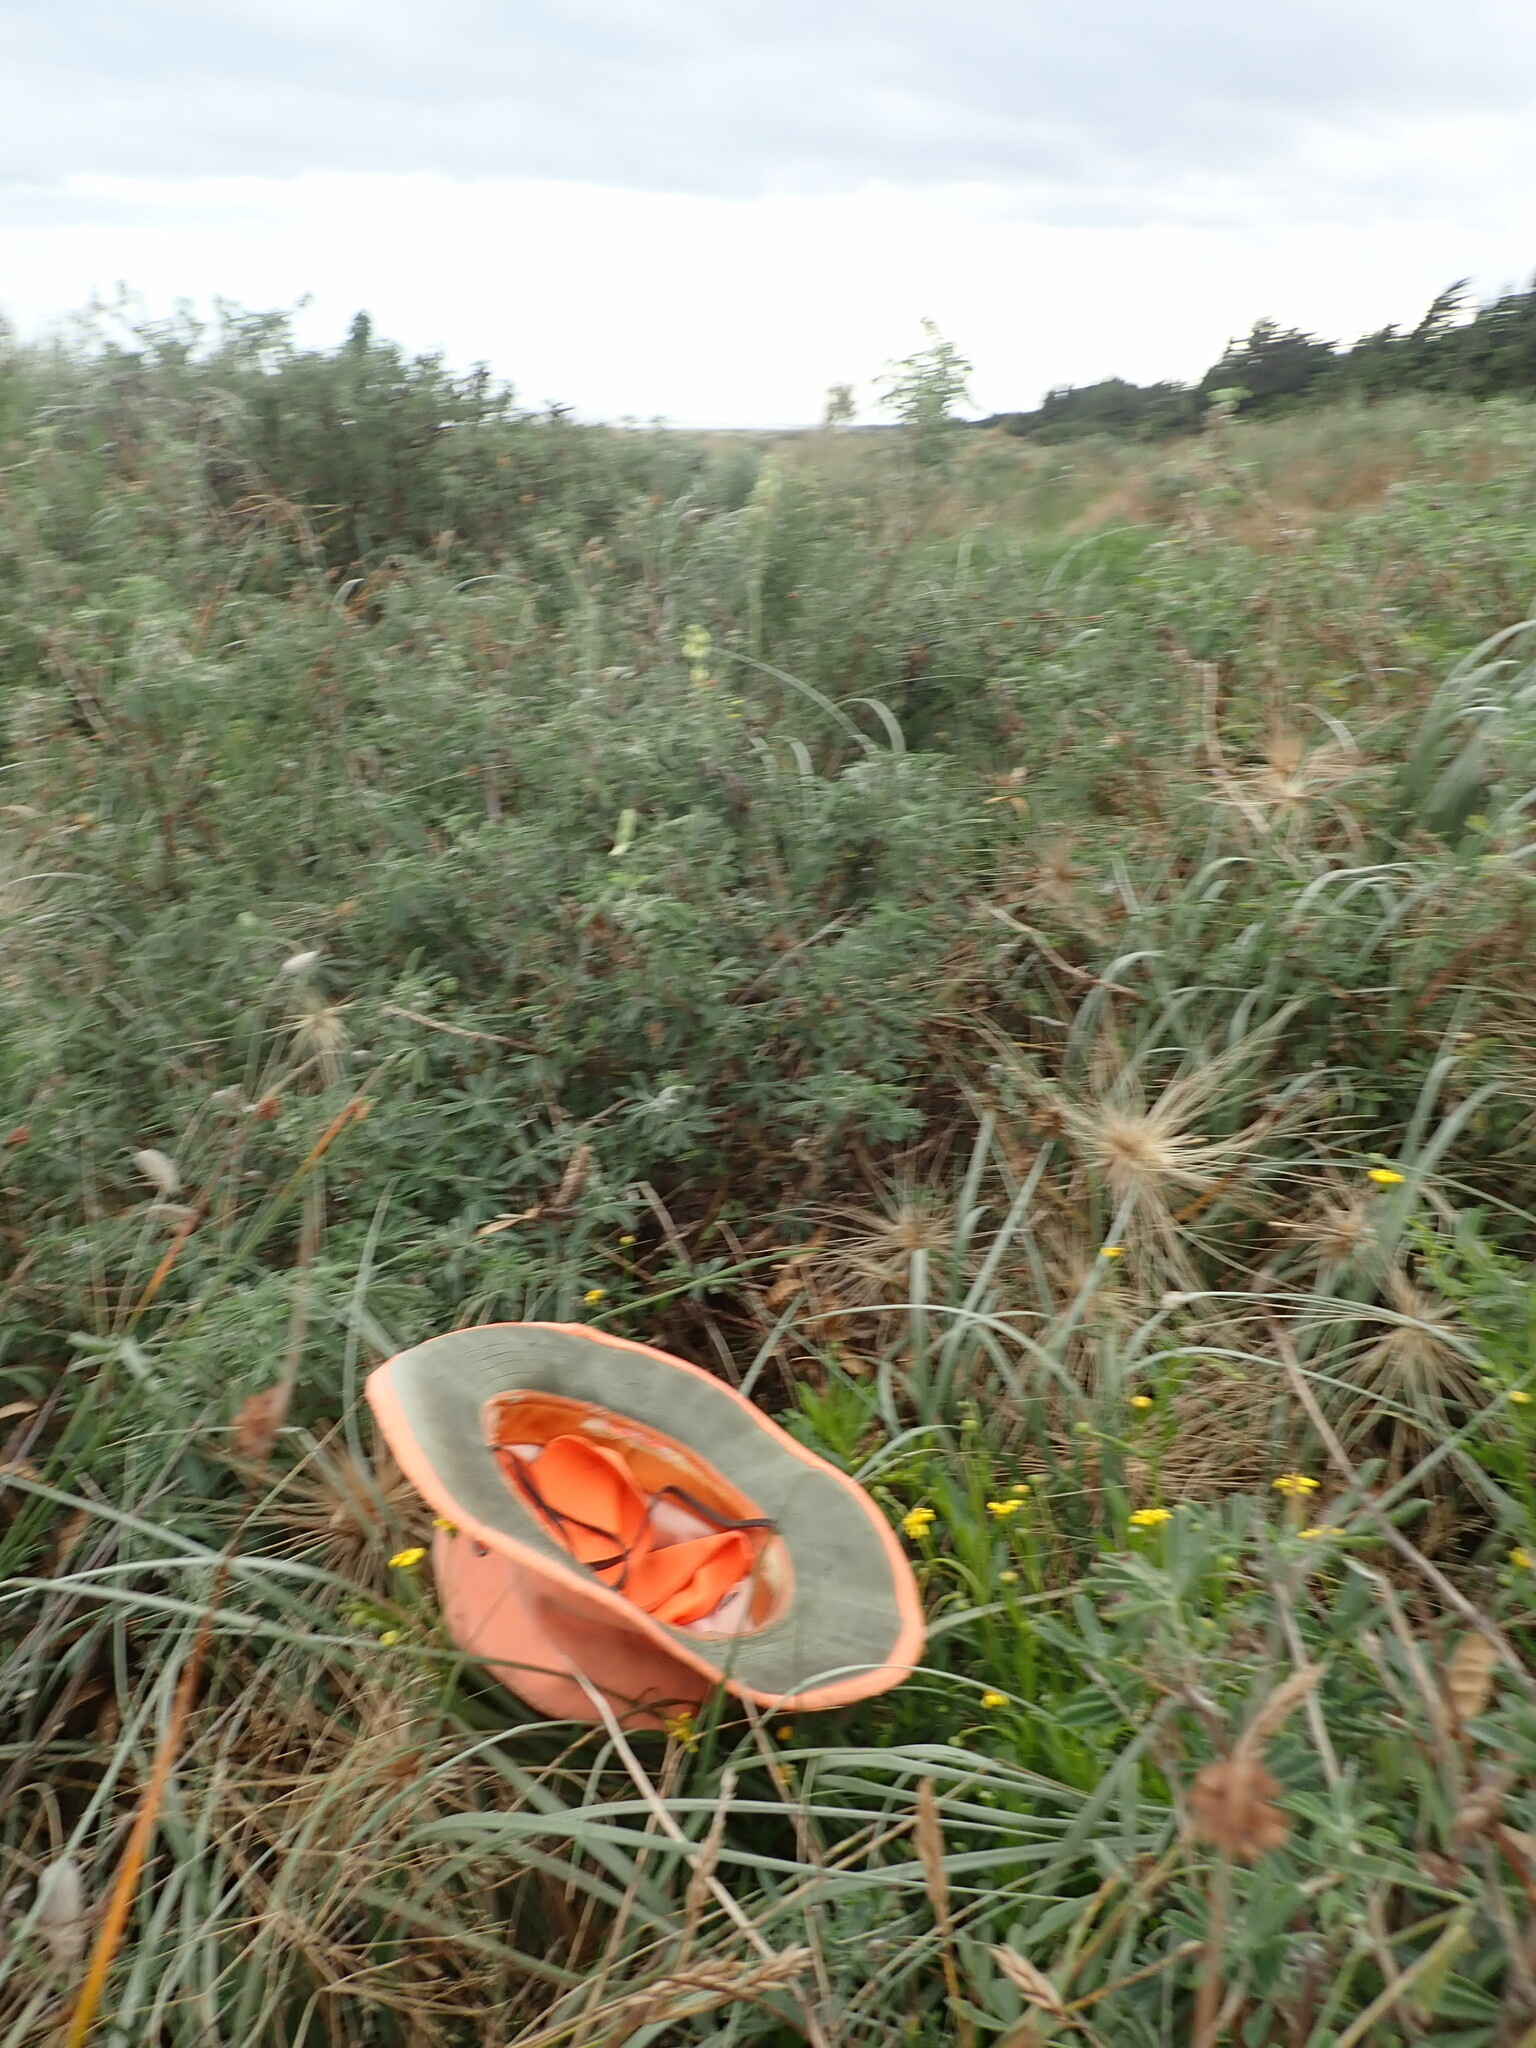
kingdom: Plantae
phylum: Tracheophyta
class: Magnoliopsida
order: Asterales
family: Asteraceae
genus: Senecio
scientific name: Senecio skirrhodon
